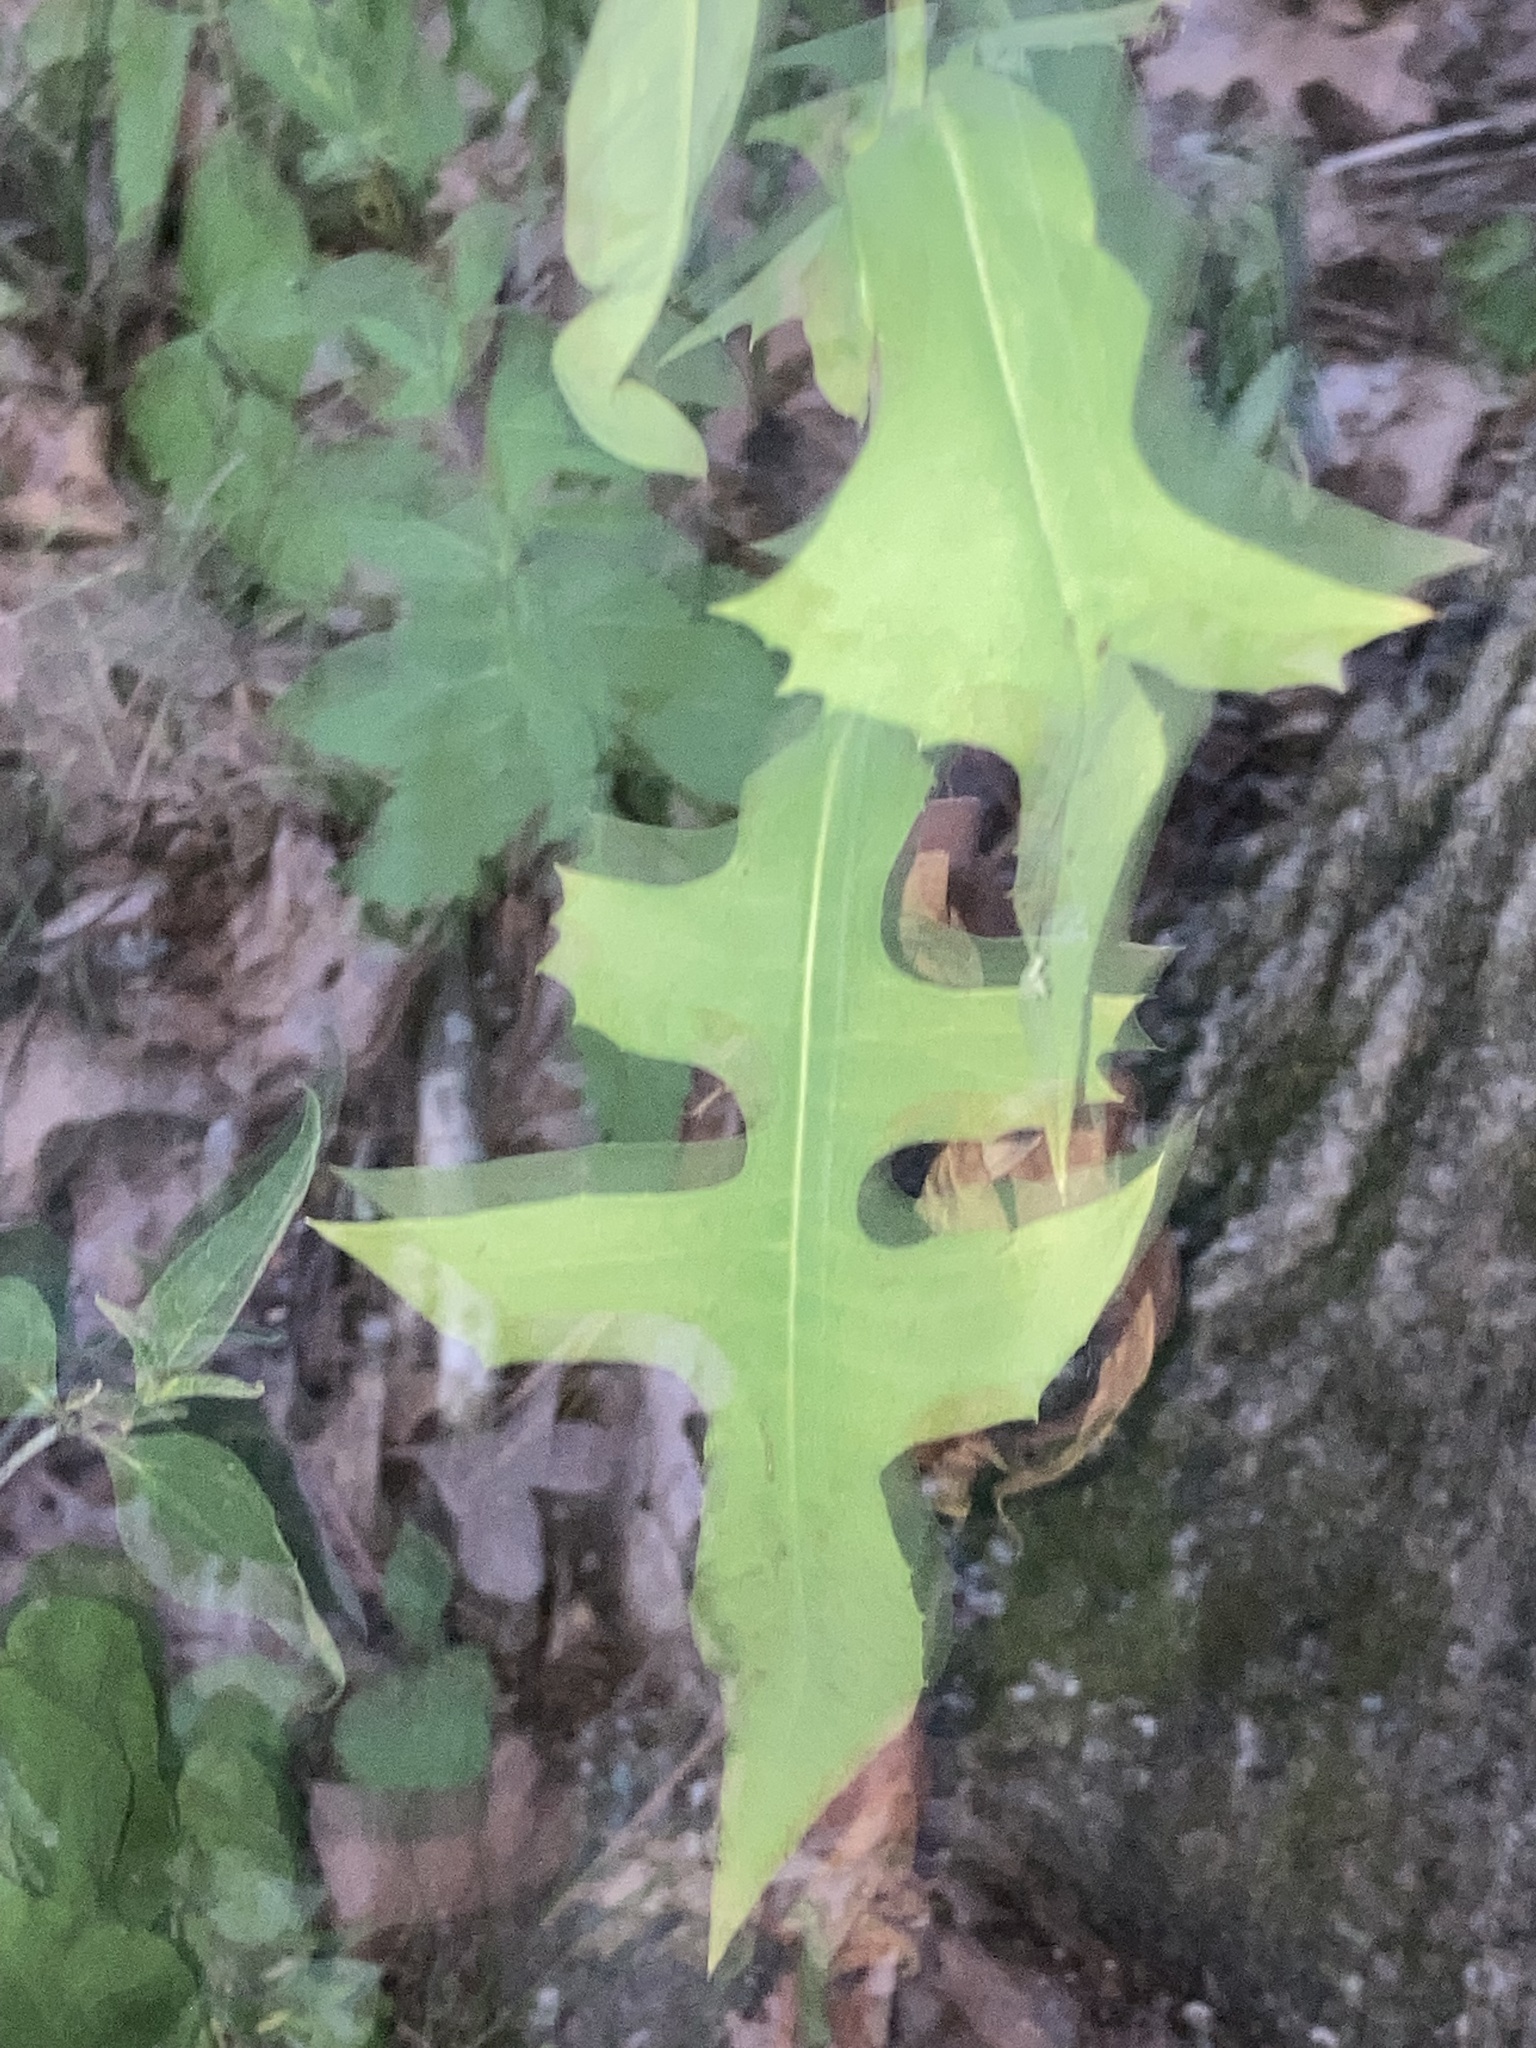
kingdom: Plantae
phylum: Tracheophyta
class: Magnoliopsida
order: Asterales
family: Asteraceae
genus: Lactuca
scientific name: Lactuca canadensis
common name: Canada lettuce
